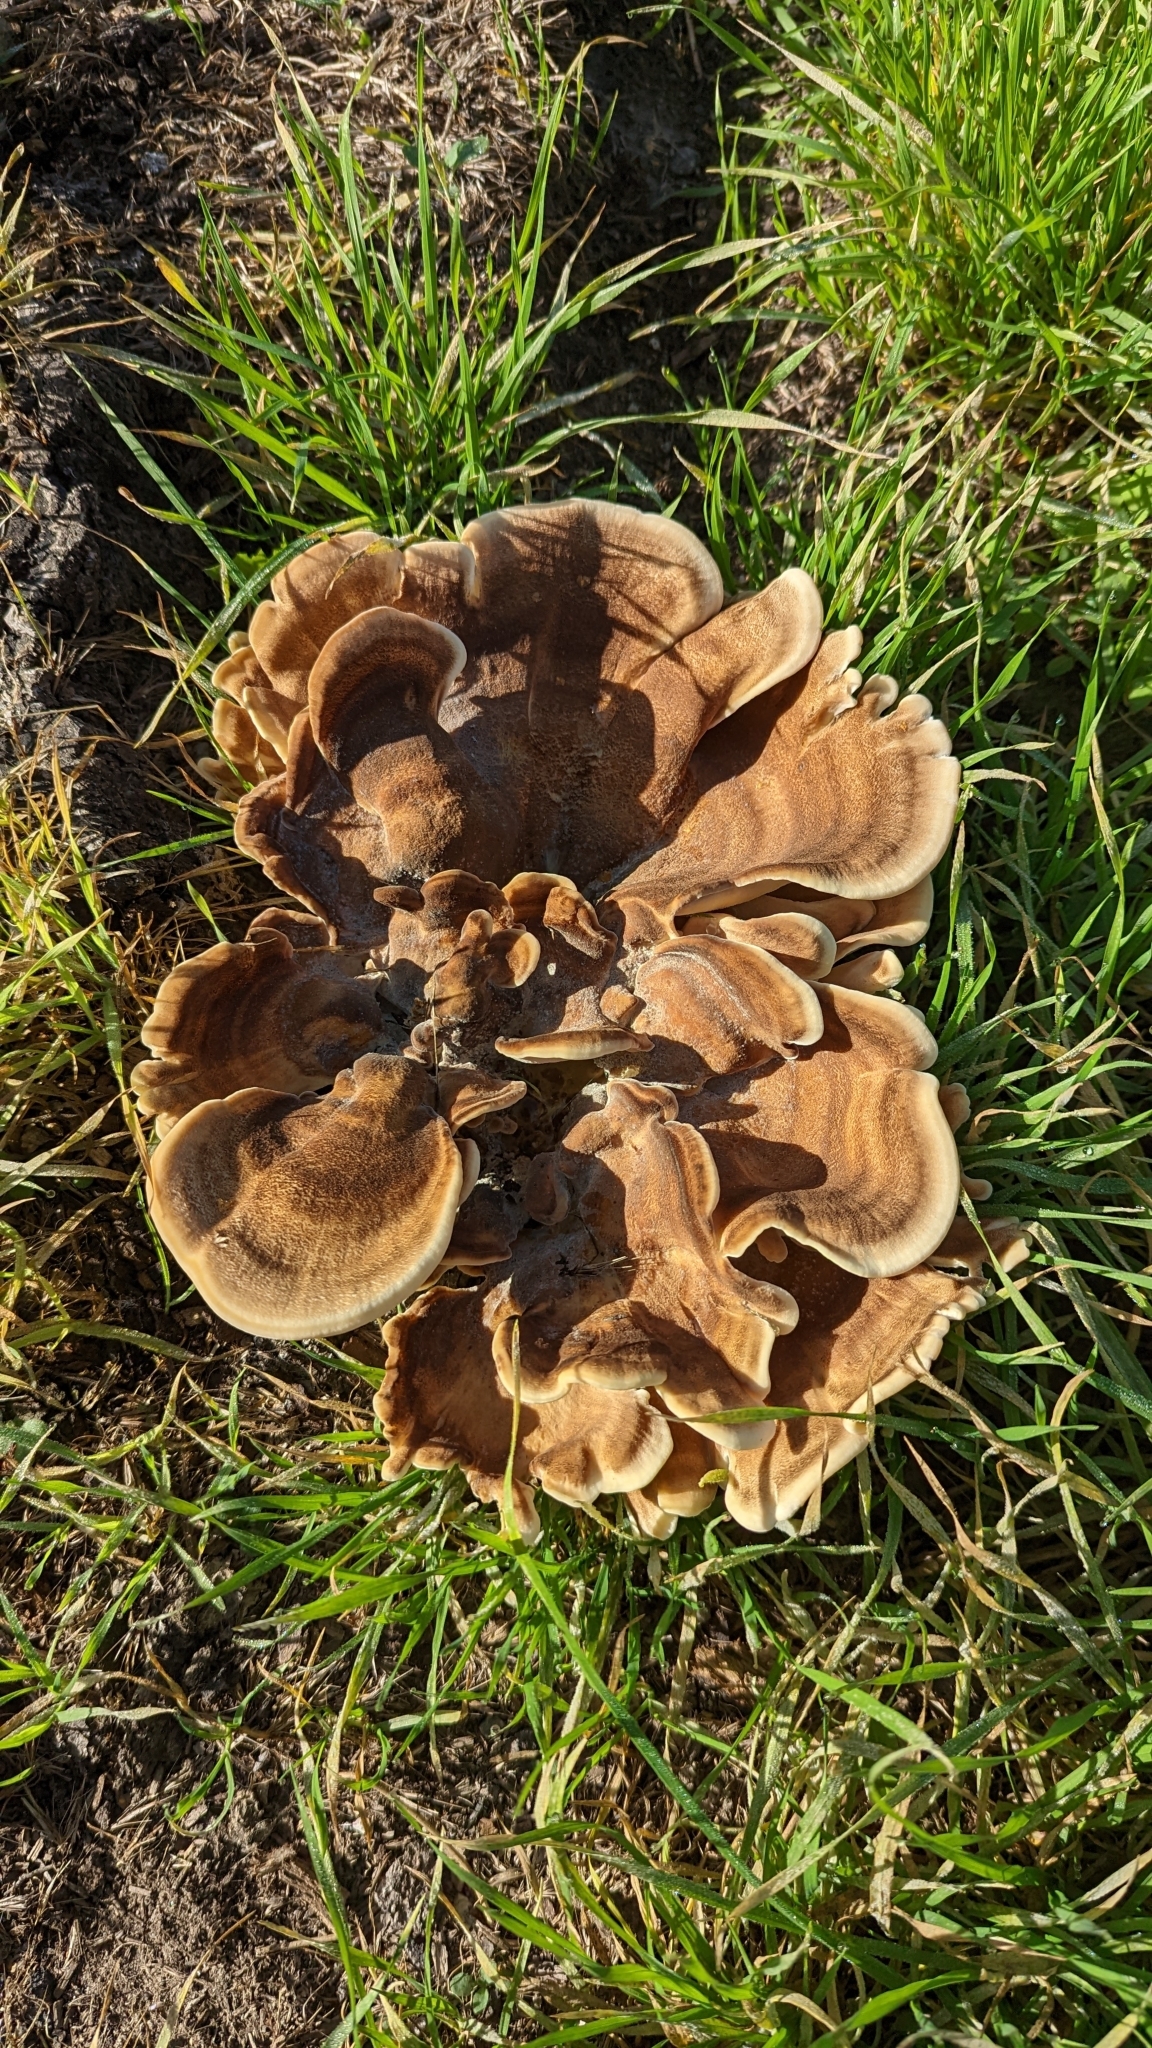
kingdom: Fungi
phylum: Basidiomycota
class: Agaricomycetes
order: Polyporales
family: Meripilaceae
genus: Meripilus
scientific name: Meripilus giganteus
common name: Giant polypore
